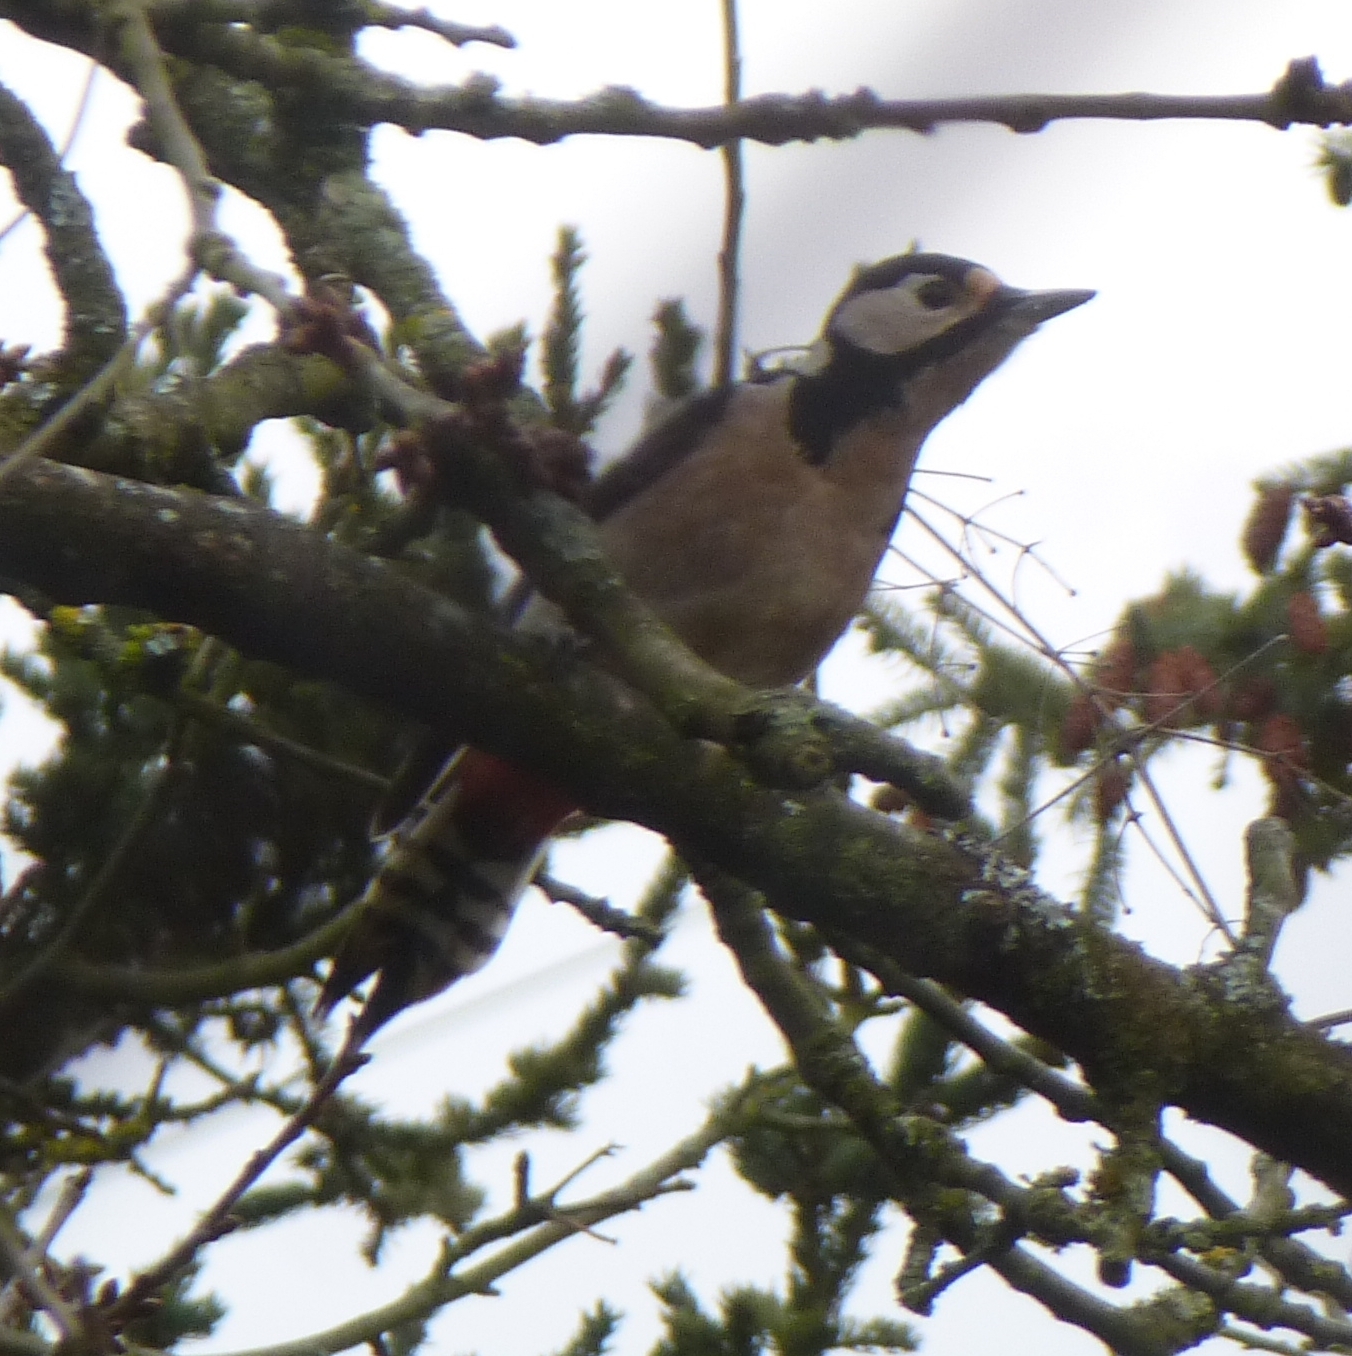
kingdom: Animalia
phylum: Chordata
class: Aves
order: Piciformes
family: Picidae
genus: Dendrocopos
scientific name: Dendrocopos major
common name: Great spotted woodpecker
